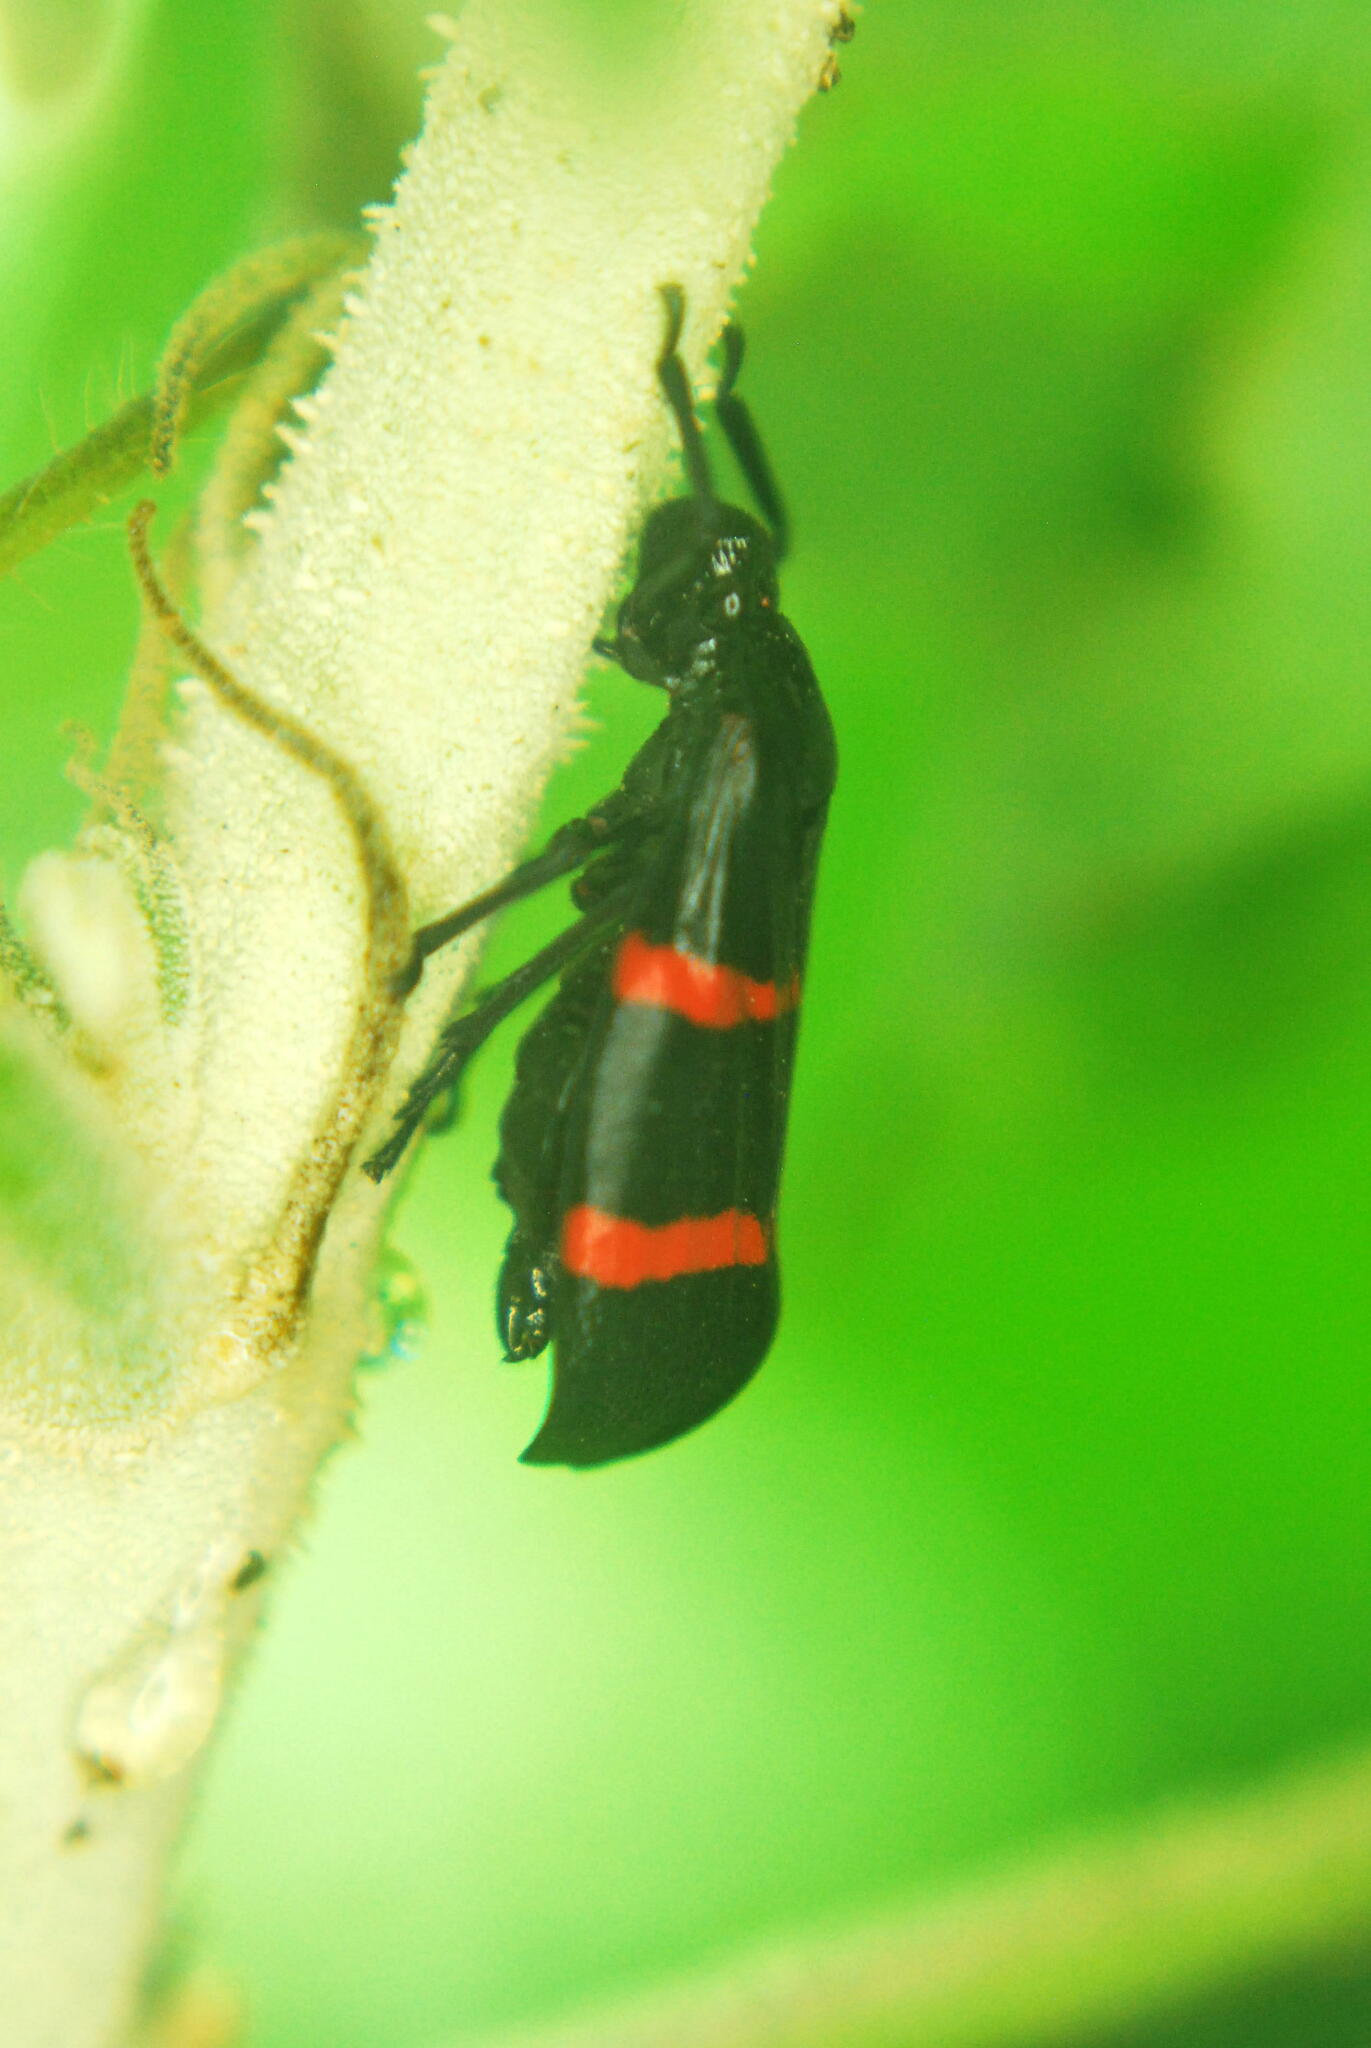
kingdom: Animalia
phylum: Arthropoda
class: Insecta
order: Hemiptera
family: Cercopidae
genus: Huaina
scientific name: Huaina inca
